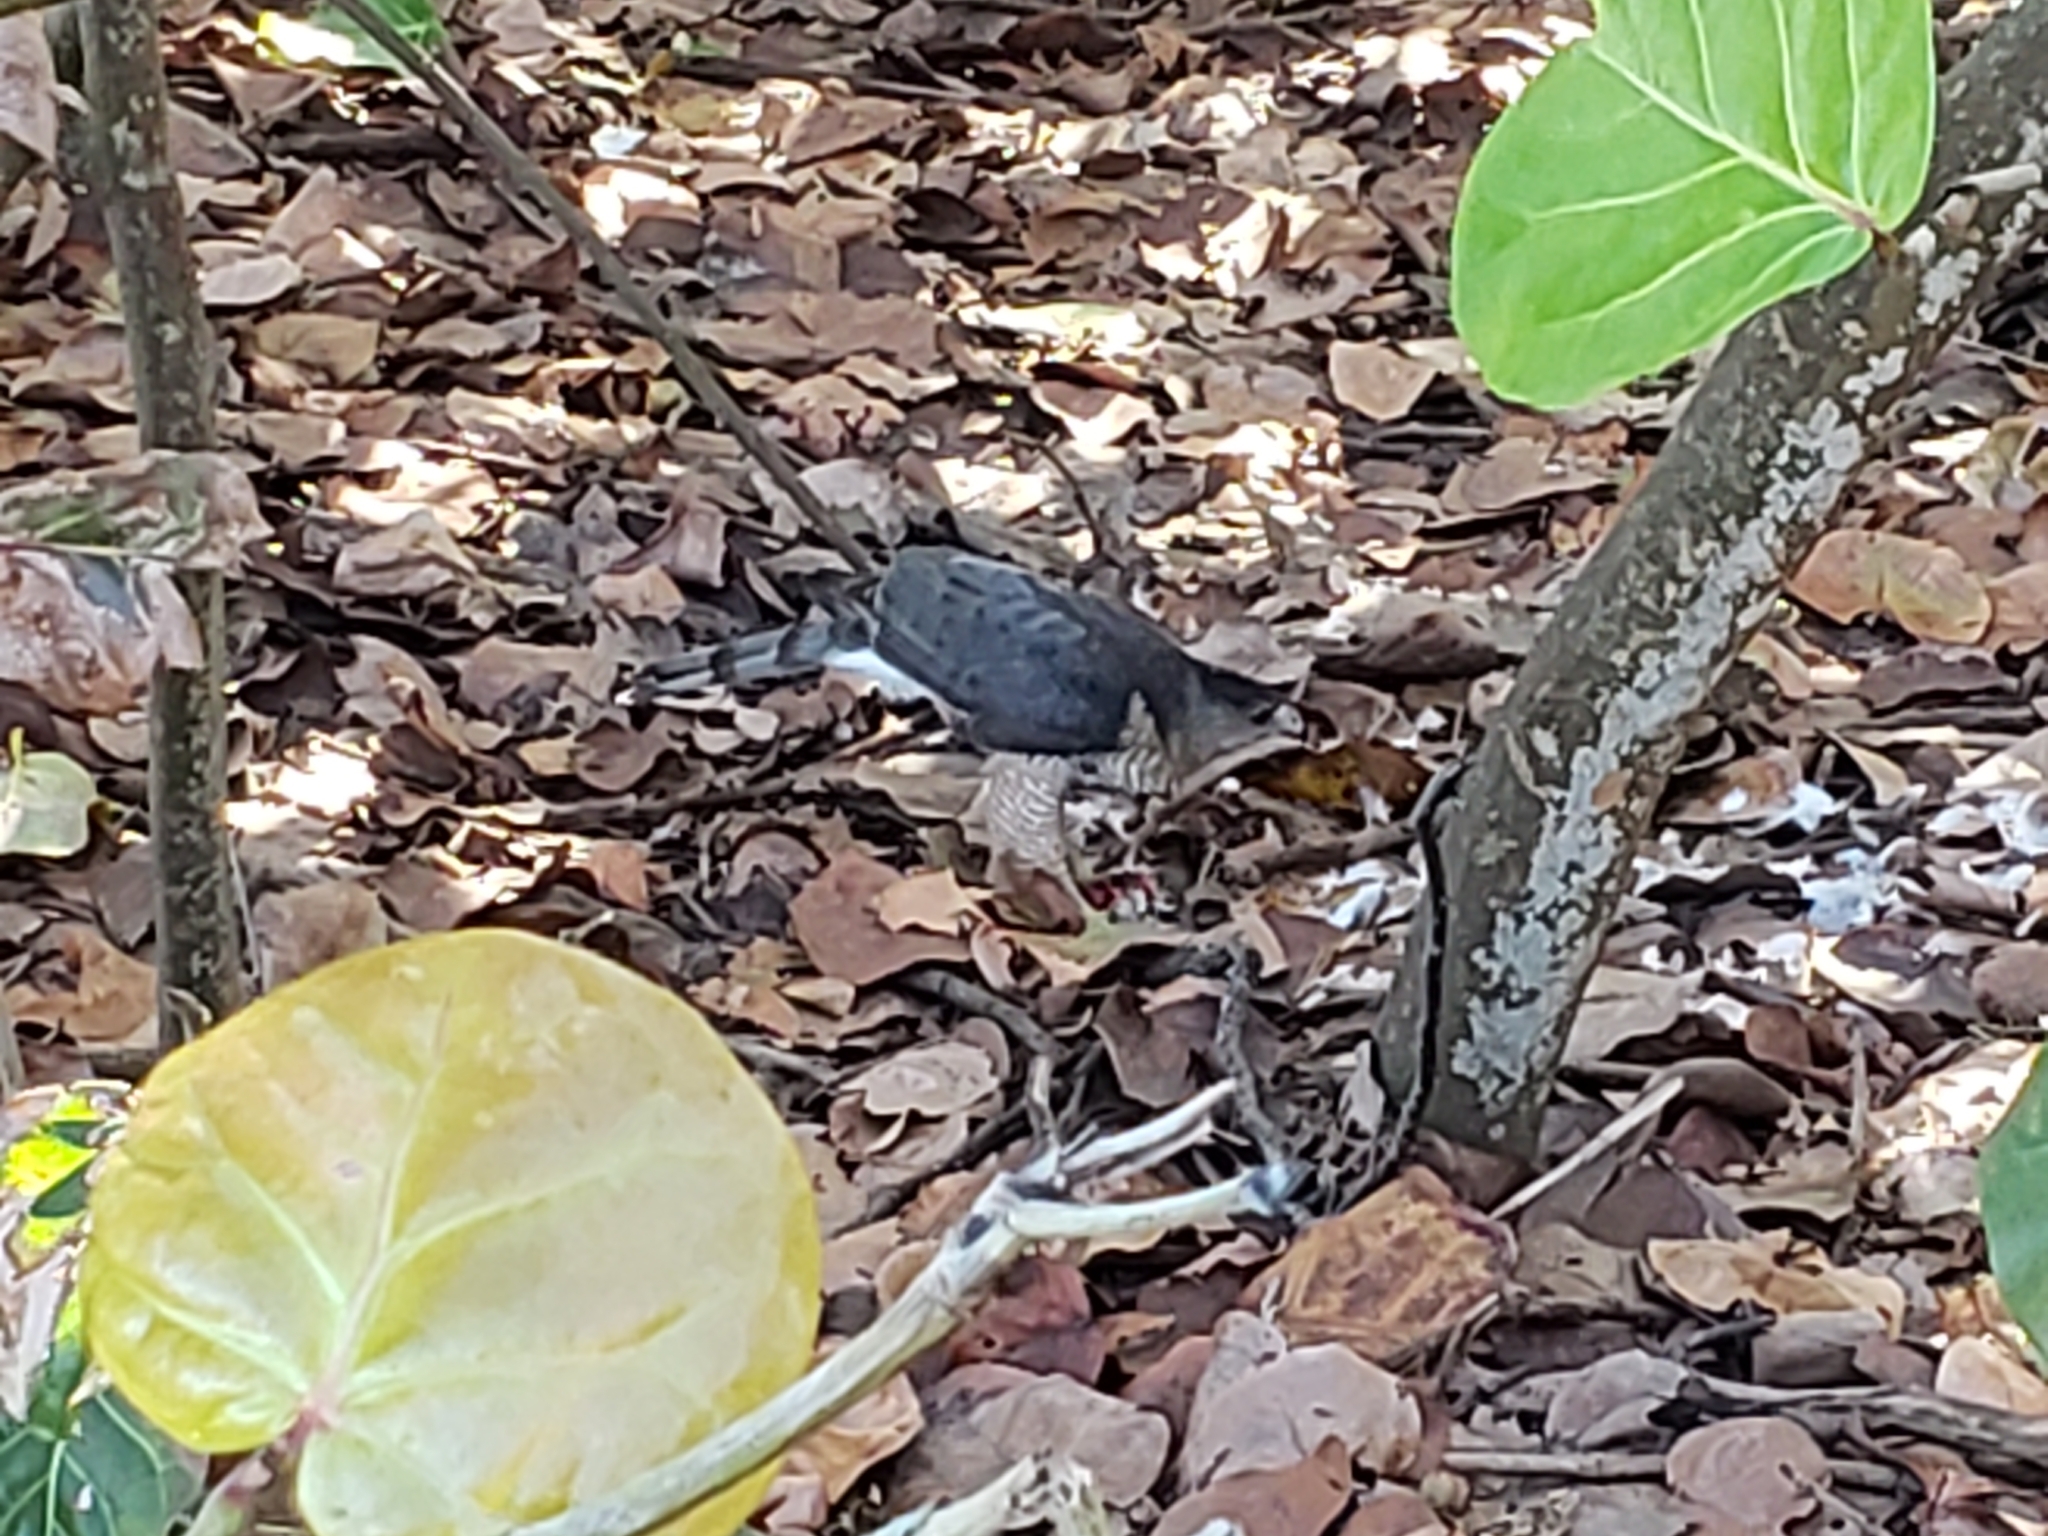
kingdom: Animalia
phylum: Chordata
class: Aves
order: Accipitriformes
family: Accipitridae
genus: Accipiter
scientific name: Accipiter cooperii
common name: Cooper's hawk
